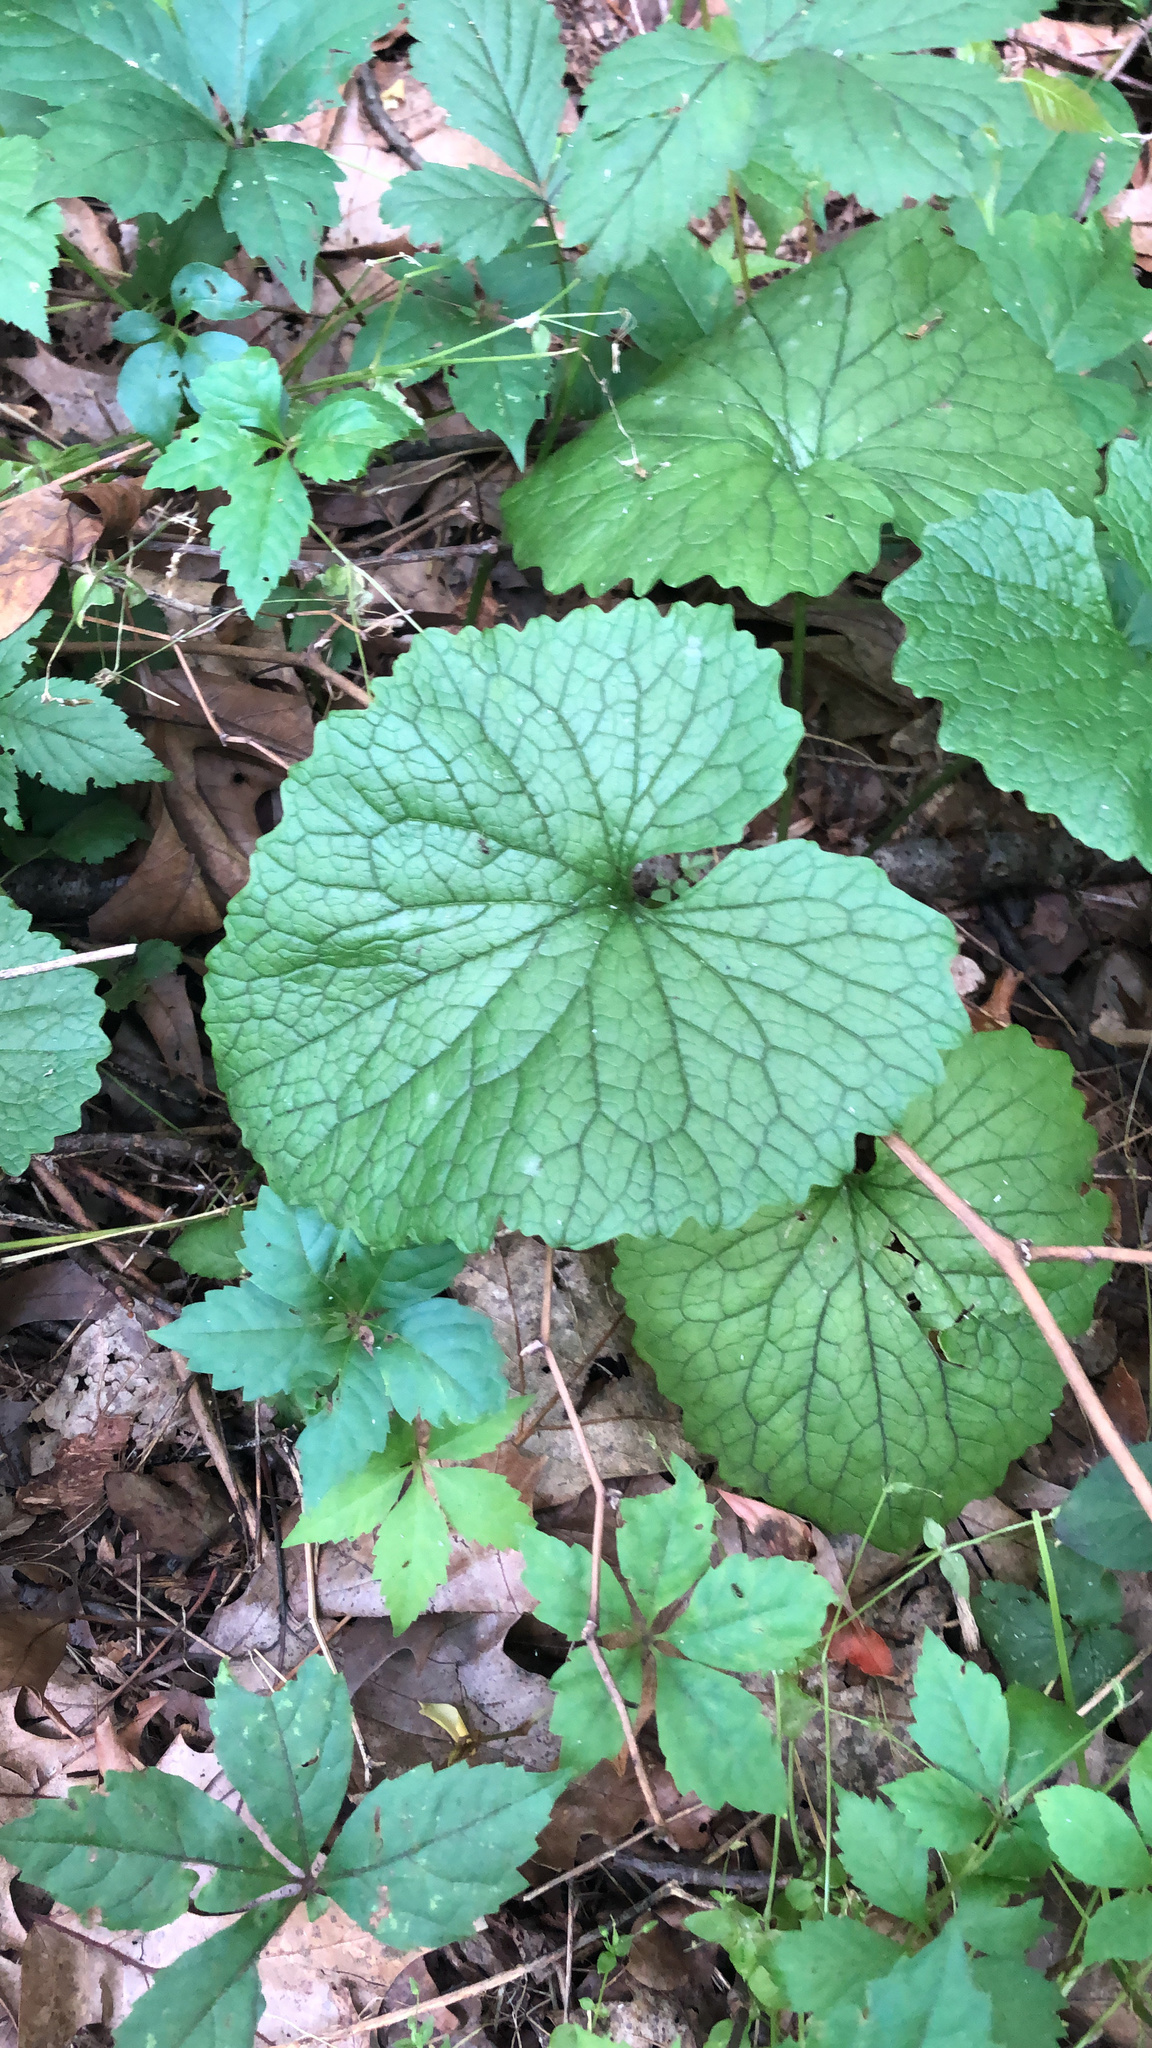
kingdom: Plantae
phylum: Tracheophyta
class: Magnoliopsida
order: Brassicales
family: Brassicaceae
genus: Alliaria
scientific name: Alliaria petiolata
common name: Garlic mustard
